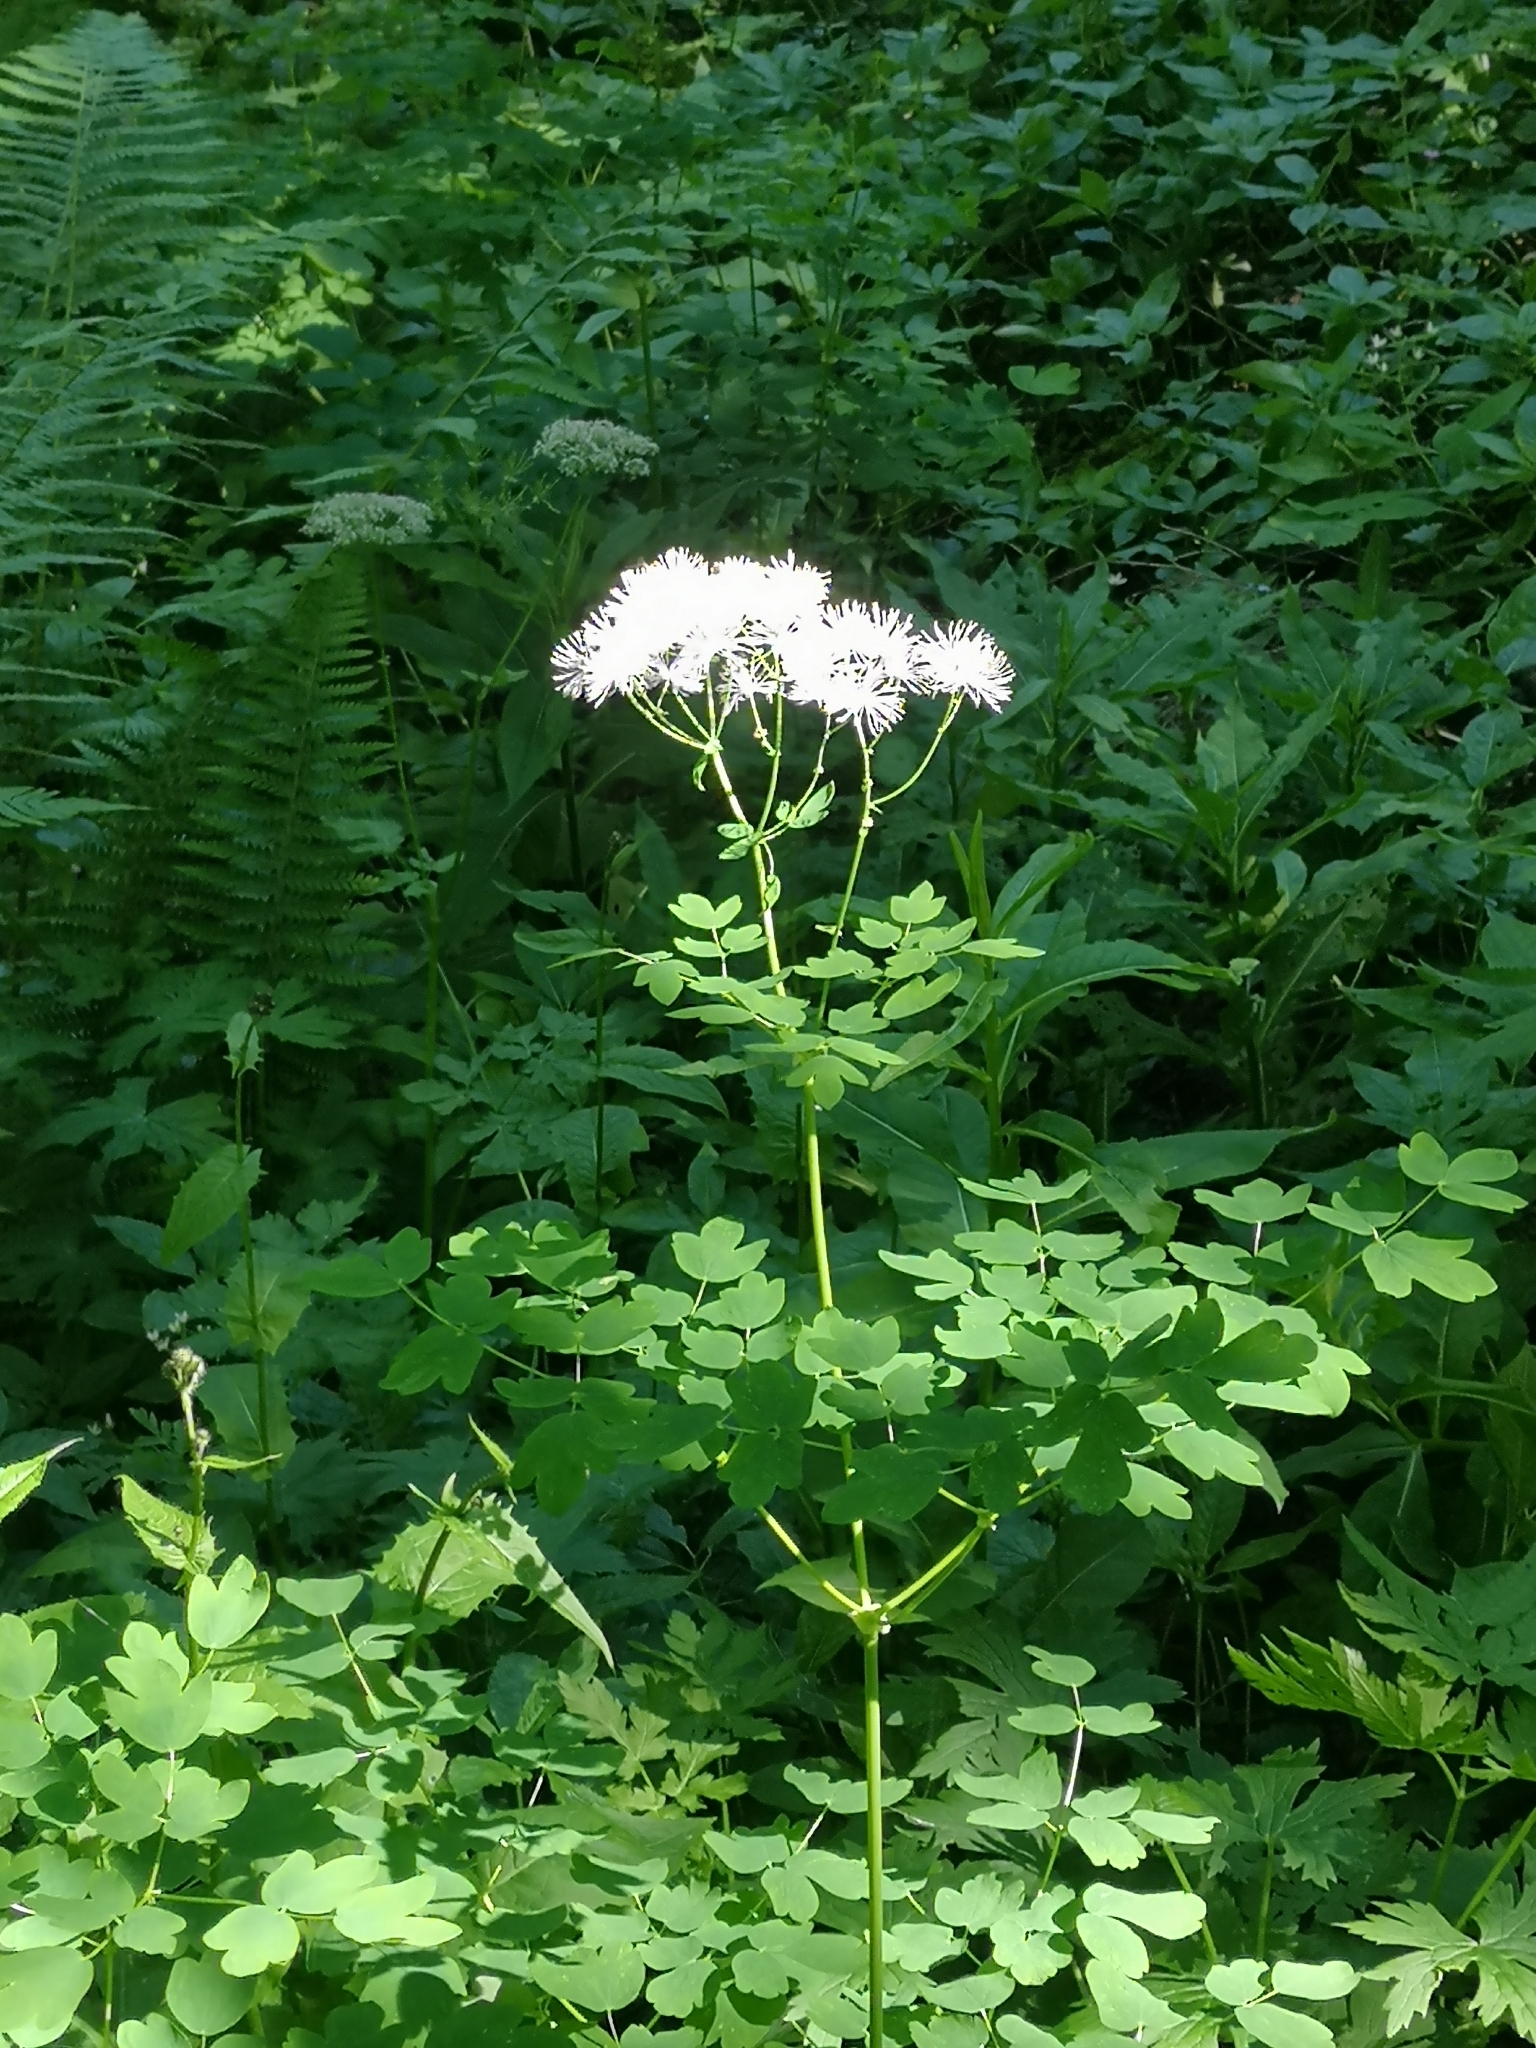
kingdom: Plantae
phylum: Tracheophyta
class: Magnoliopsida
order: Ranunculales
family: Ranunculaceae
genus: Thalictrum
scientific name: Thalictrum aquilegiifolium
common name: French meadow-rue
